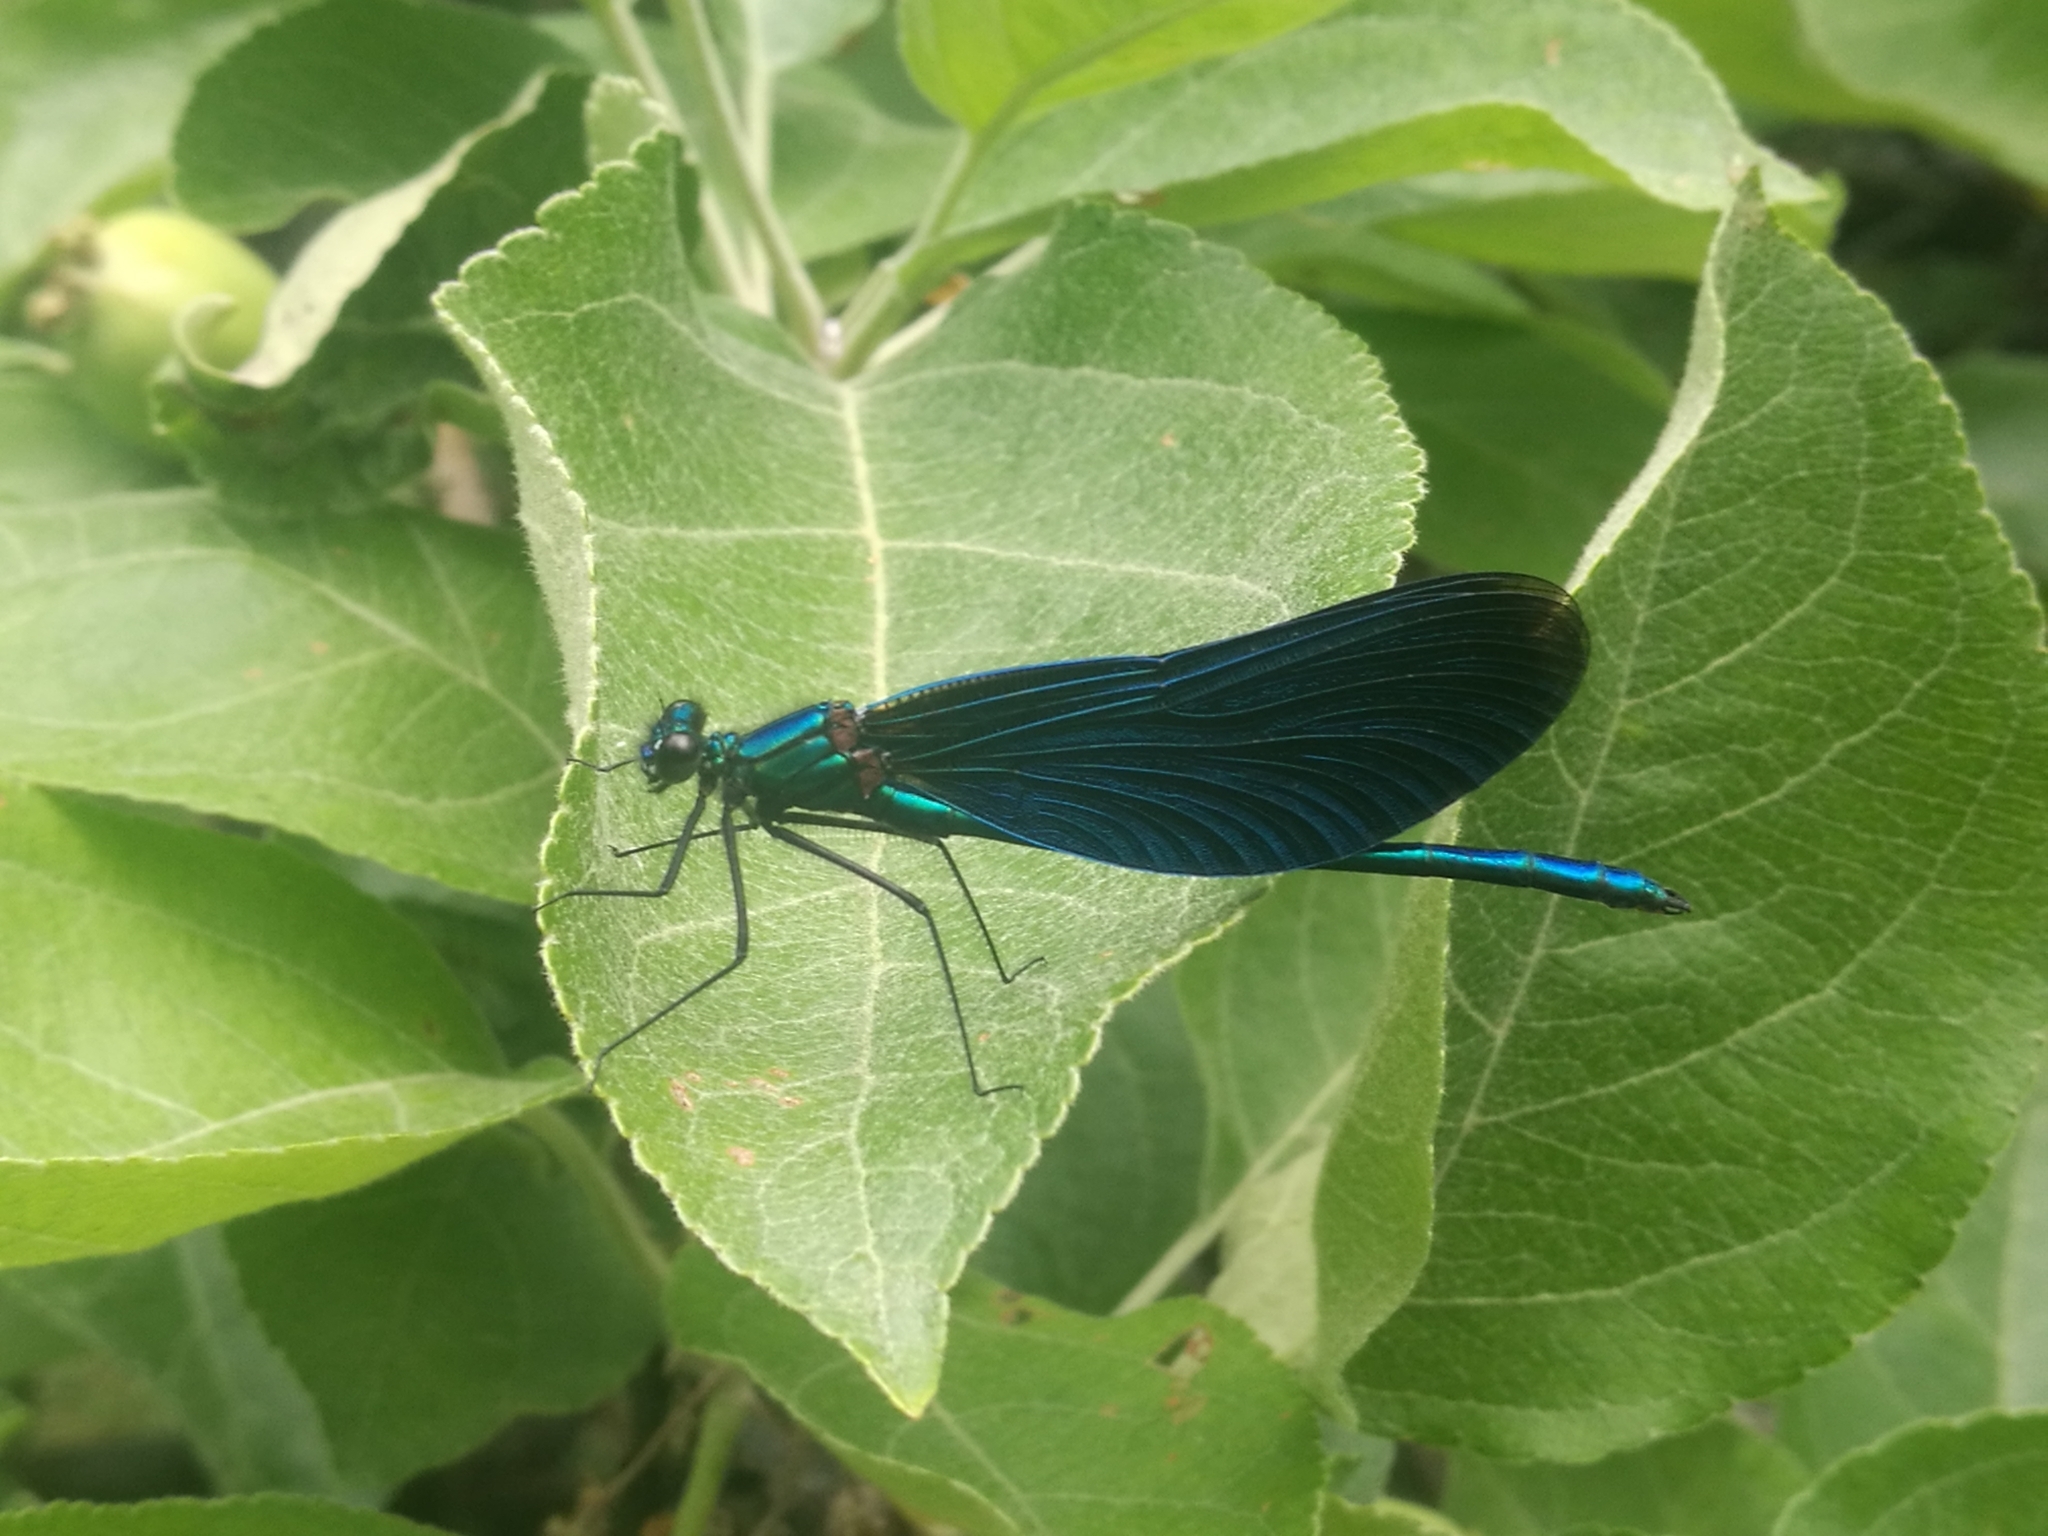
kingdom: Animalia
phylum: Arthropoda
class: Insecta
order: Odonata
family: Calopterygidae
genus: Calopteryx
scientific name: Calopteryx virgo
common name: Beautiful demoiselle
